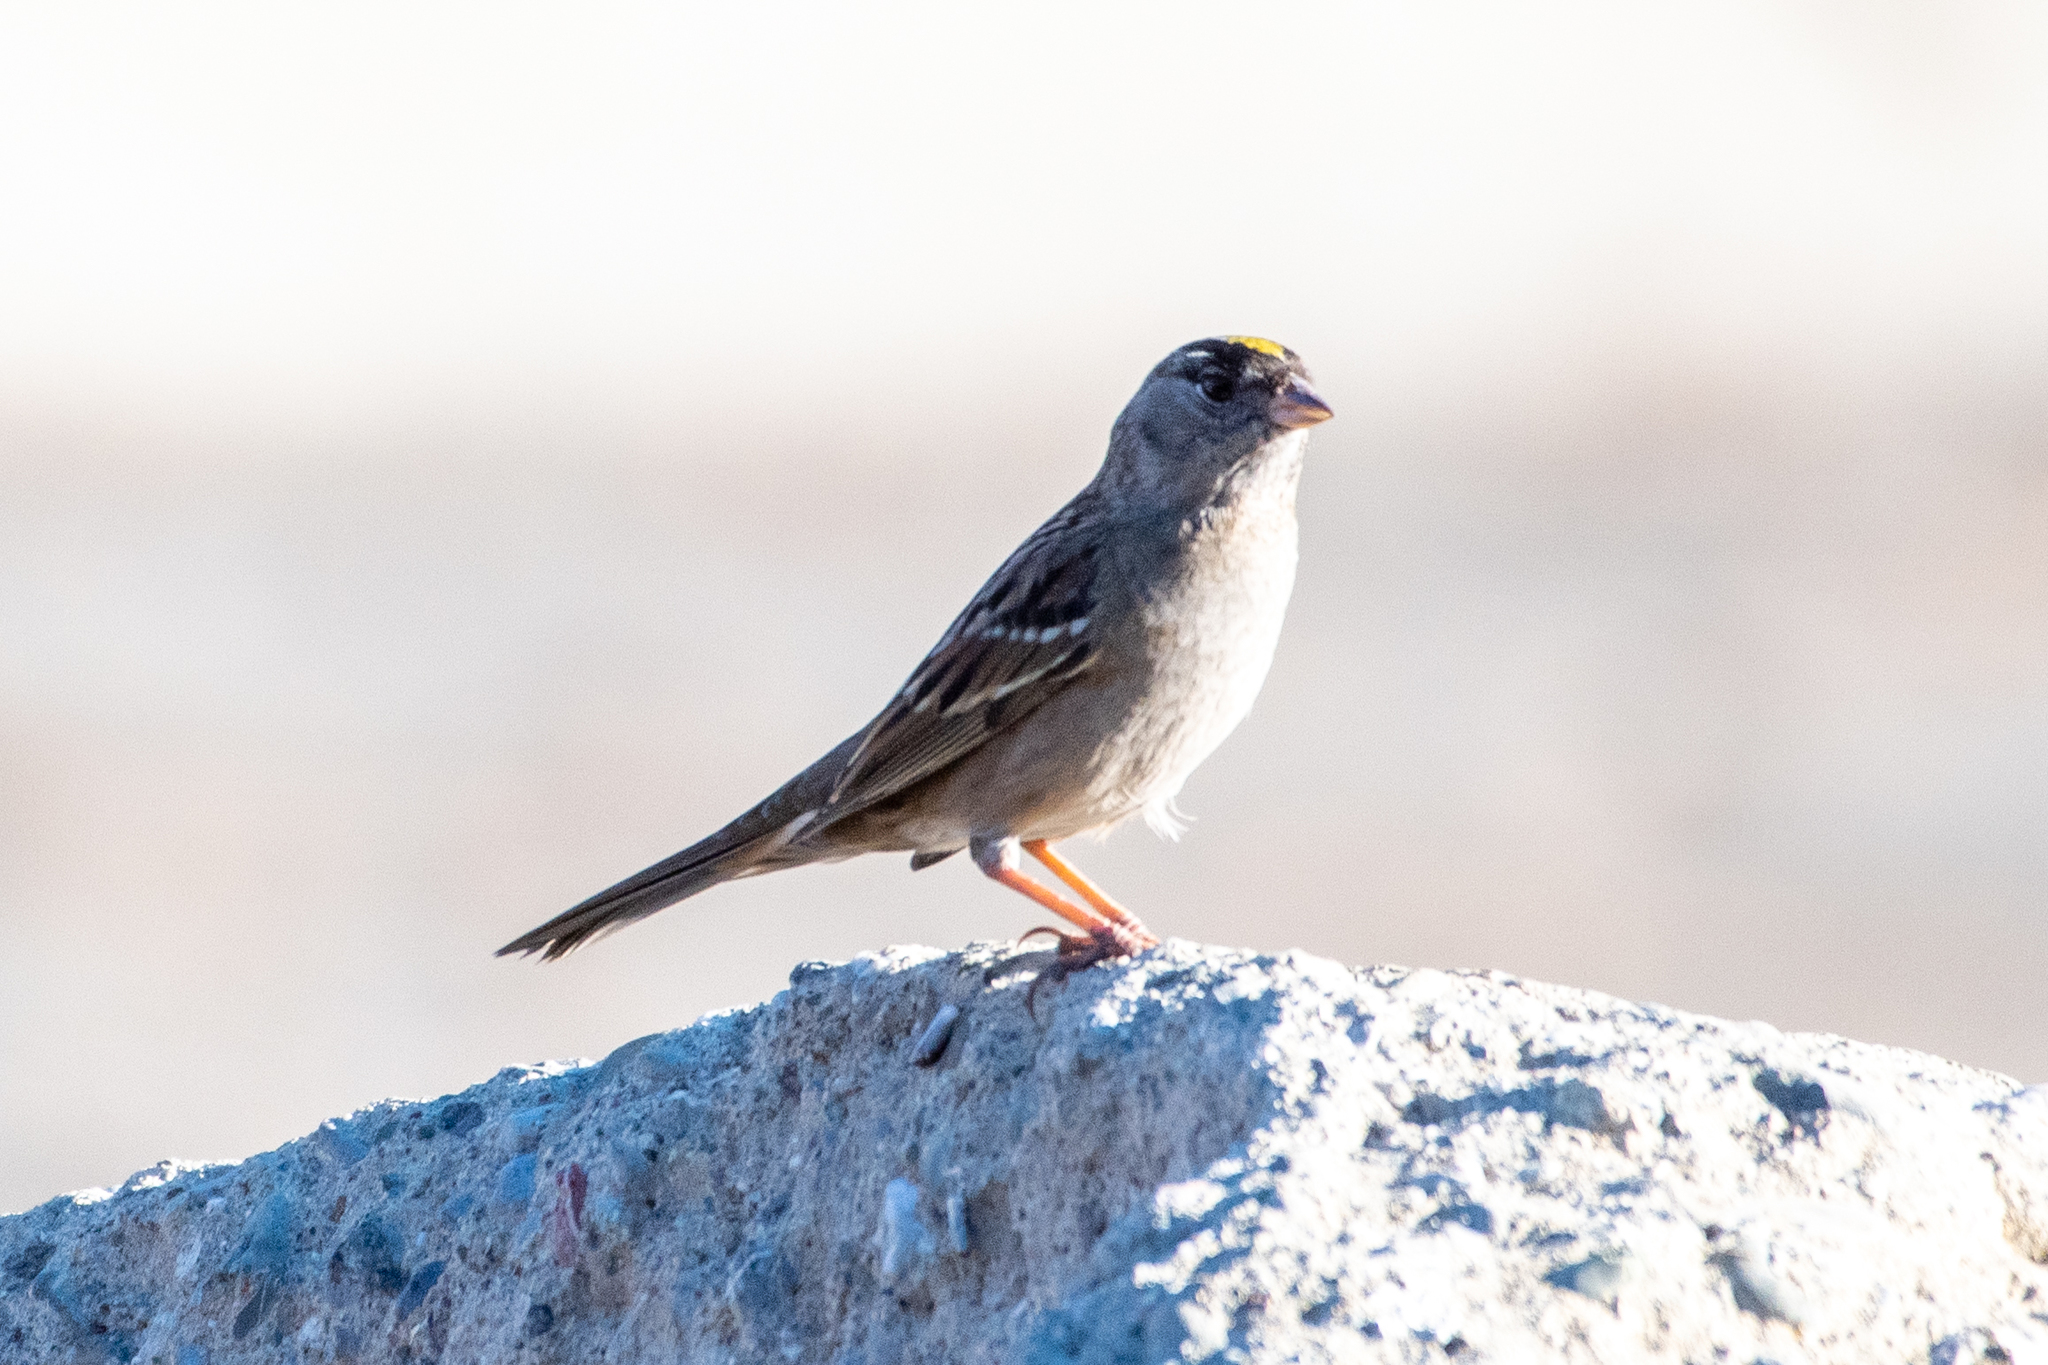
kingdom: Animalia
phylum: Chordata
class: Aves
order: Passeriformes
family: Passerellidae
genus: Zonotrichia
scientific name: Zonotrichia atricapilla
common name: Golden-crowned sparrow
